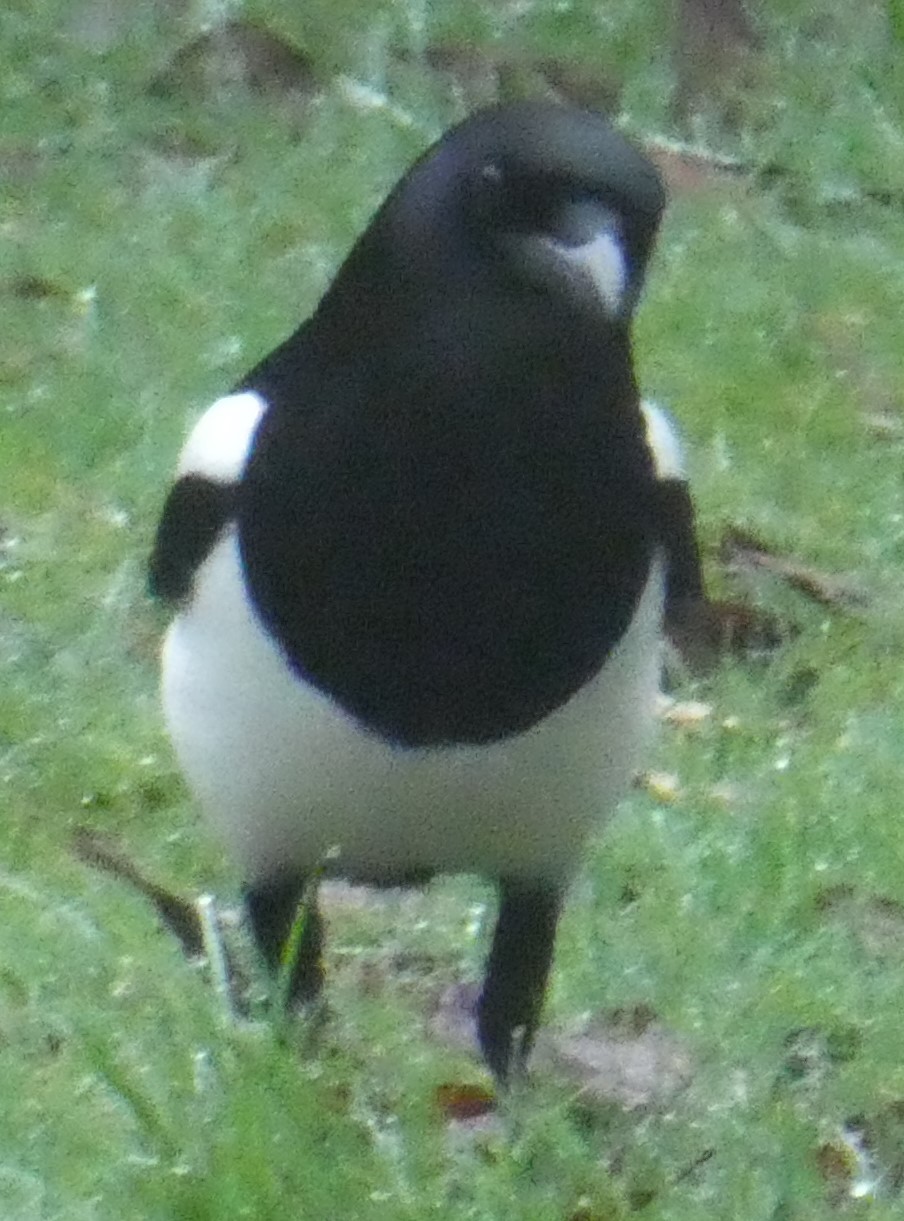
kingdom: Animalia
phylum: Chordata
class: Aves
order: Passeriformes
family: Corvidae
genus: Pica
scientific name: Pica pica
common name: Eurasian magpie
